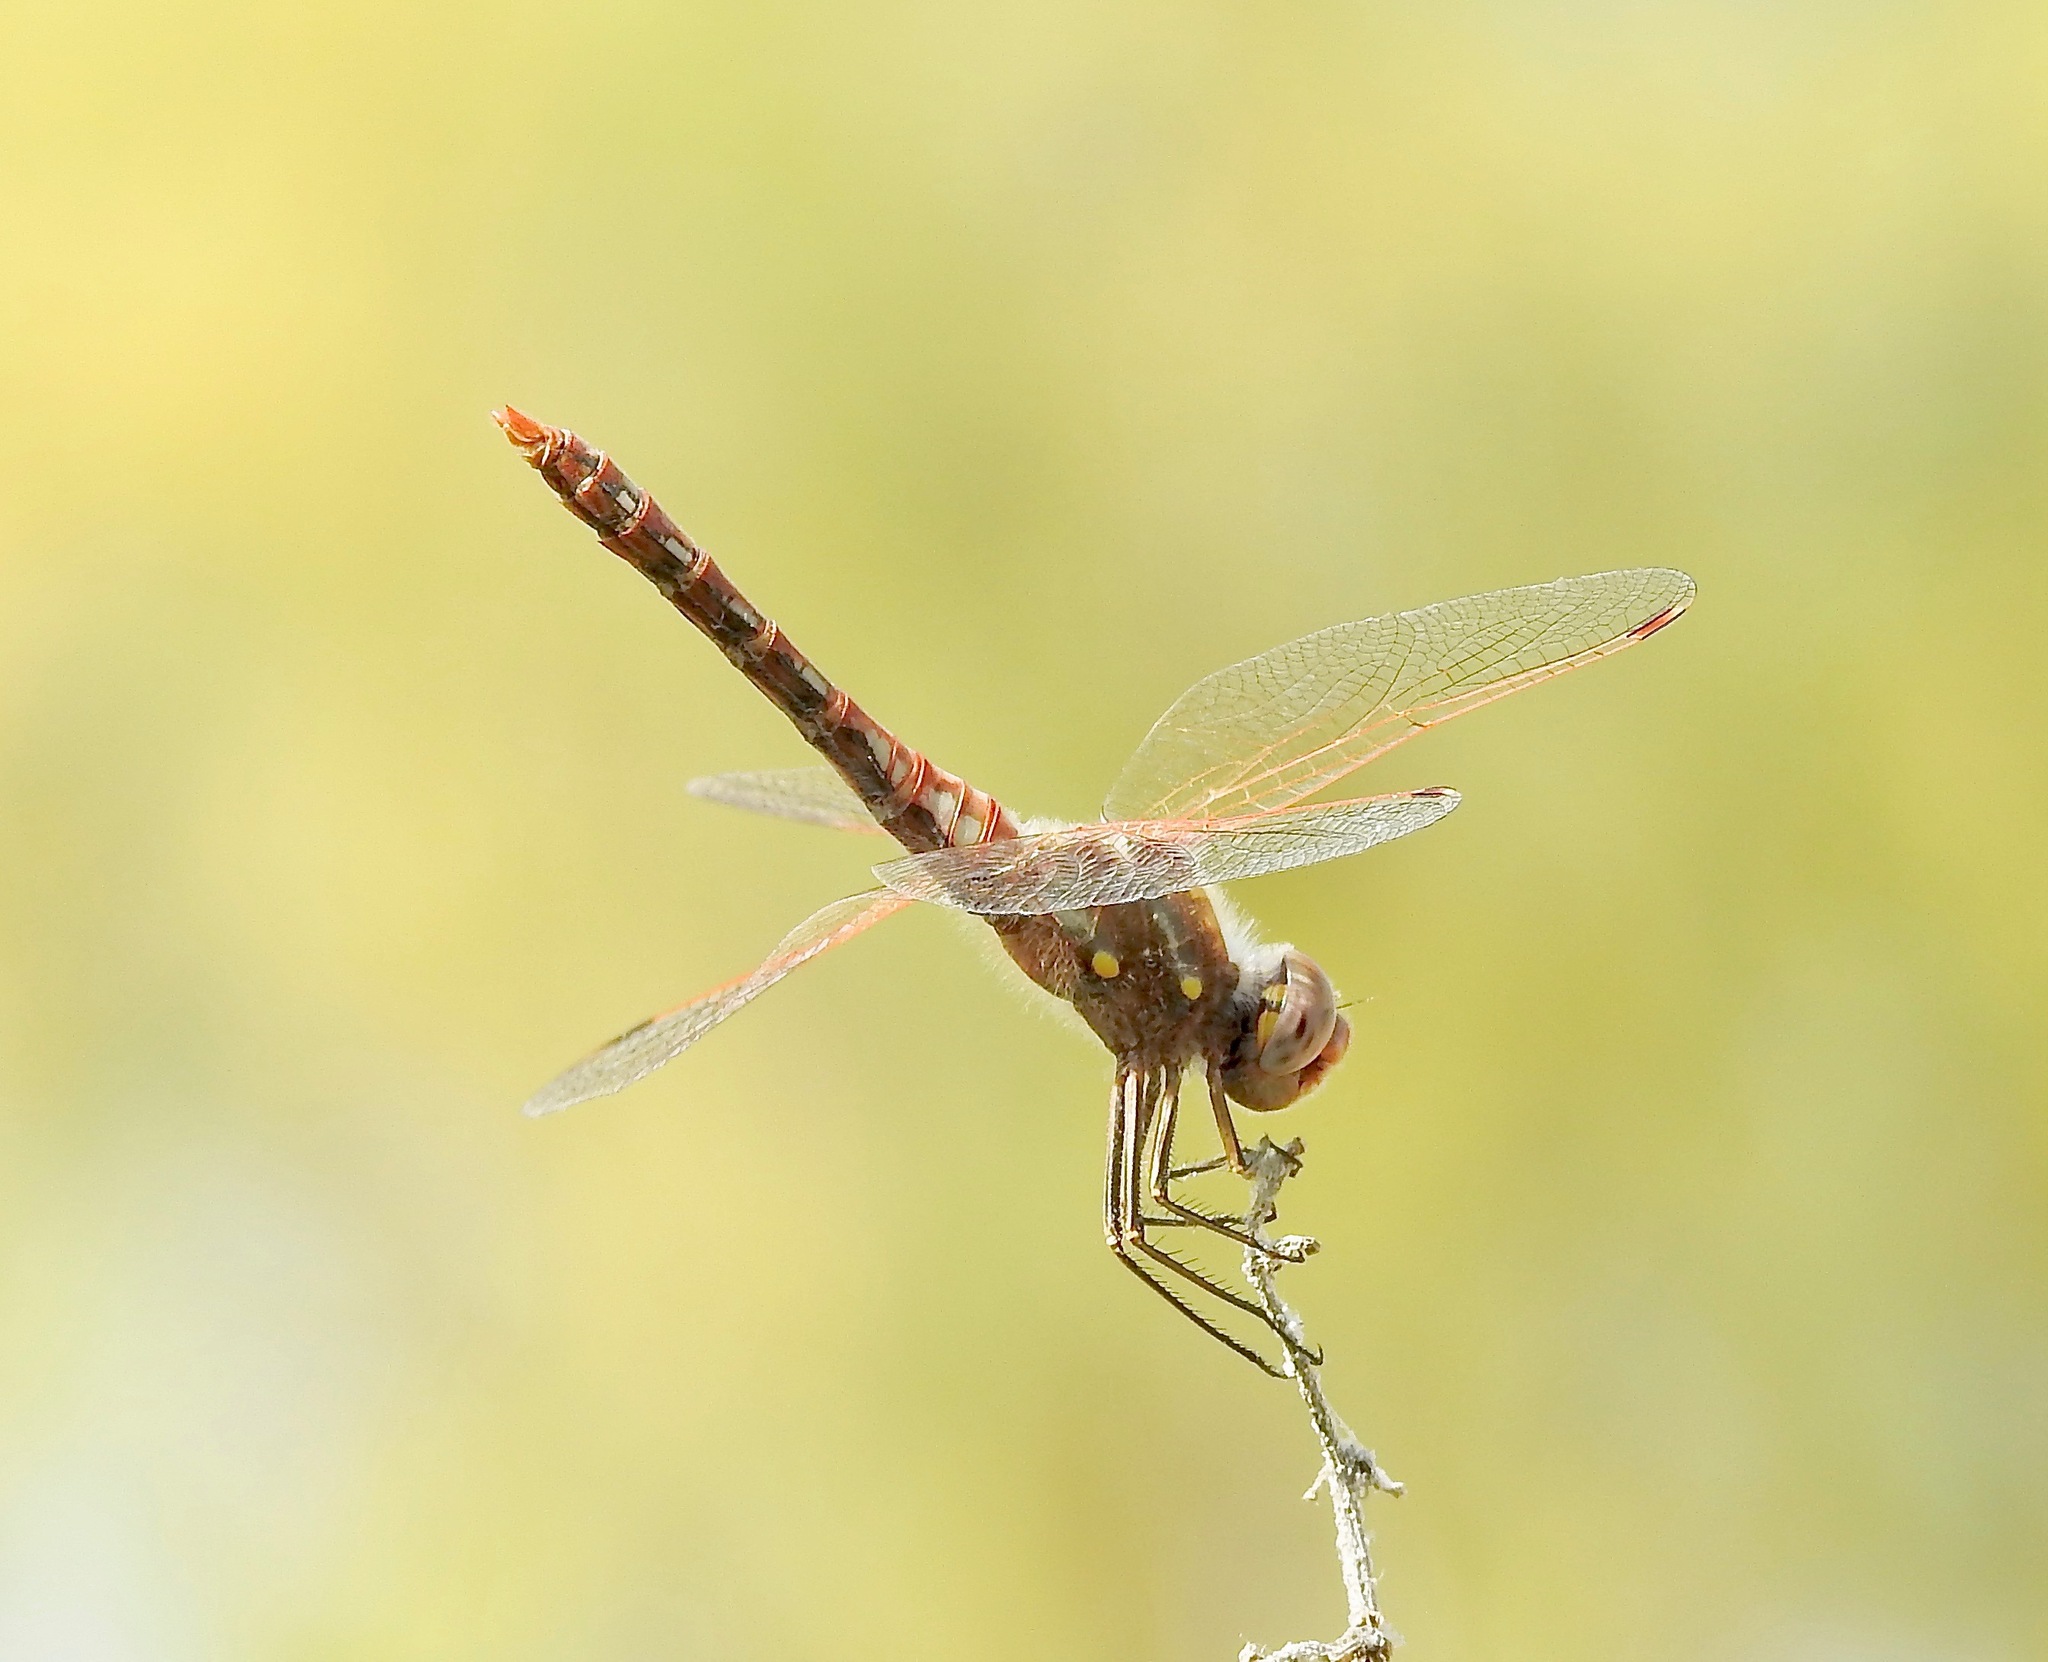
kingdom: Animalia
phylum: Arthropoda
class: Insecta
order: Odonata
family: Libellulidae
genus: Sympetrum
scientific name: Sympetrum corruptum
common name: Variegated meadowhawk
